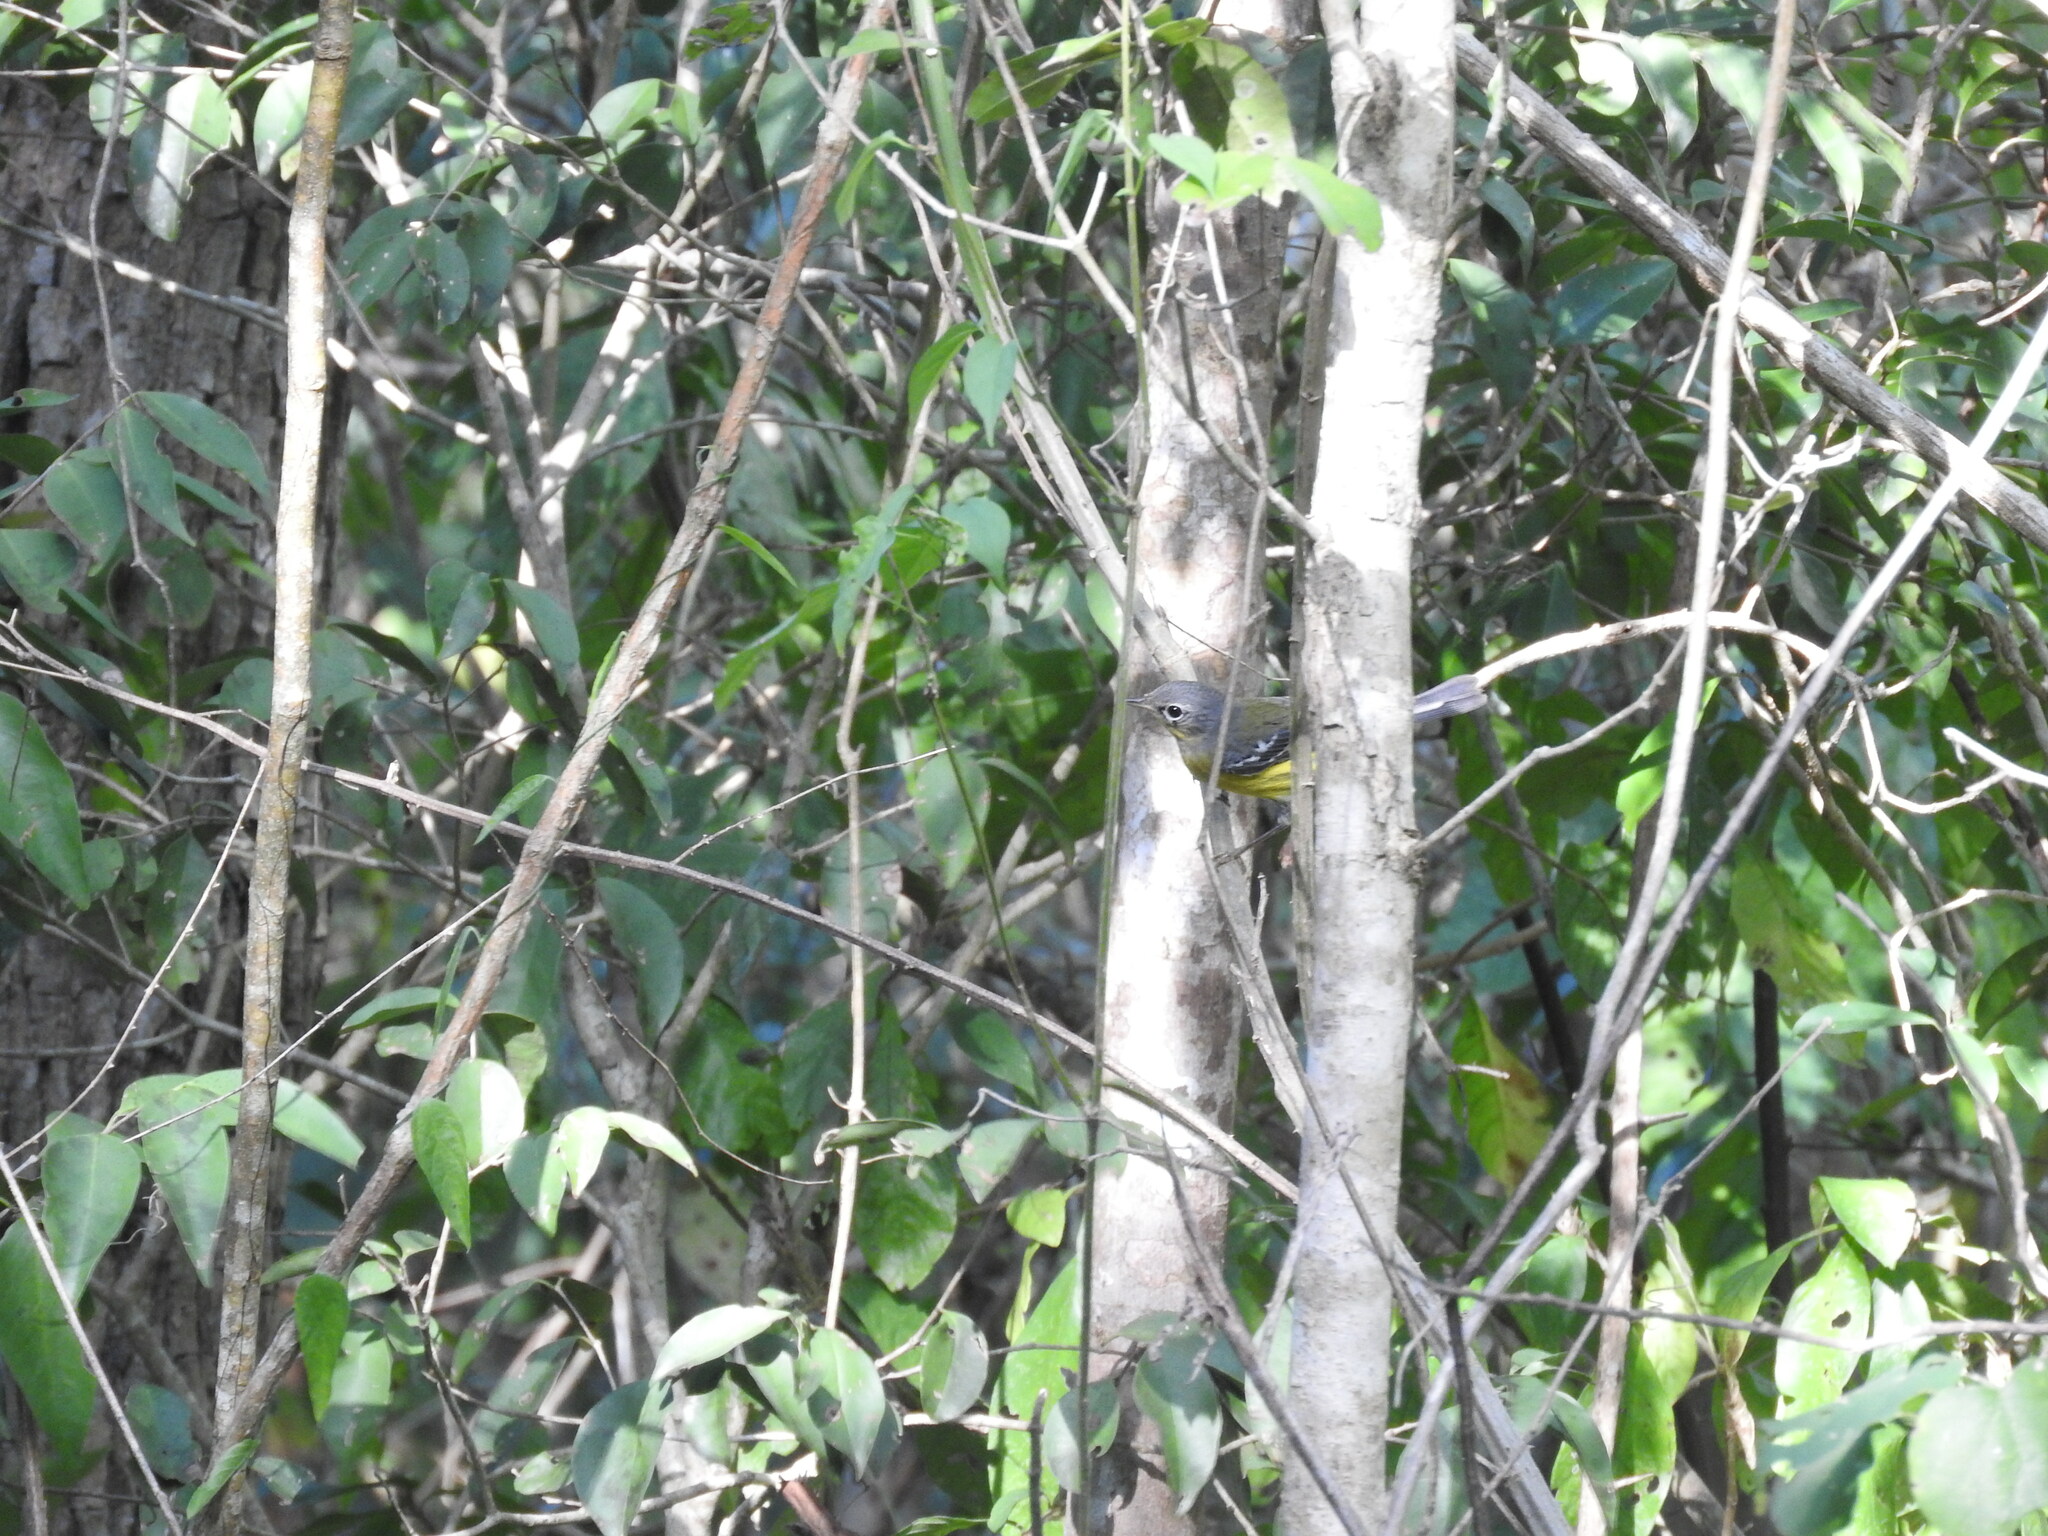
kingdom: Animalia
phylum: Chordata
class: Aves
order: Passeriformes
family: Parulidae
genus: Setophaga
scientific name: Setophaga magnolia
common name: Magnolia warbler
